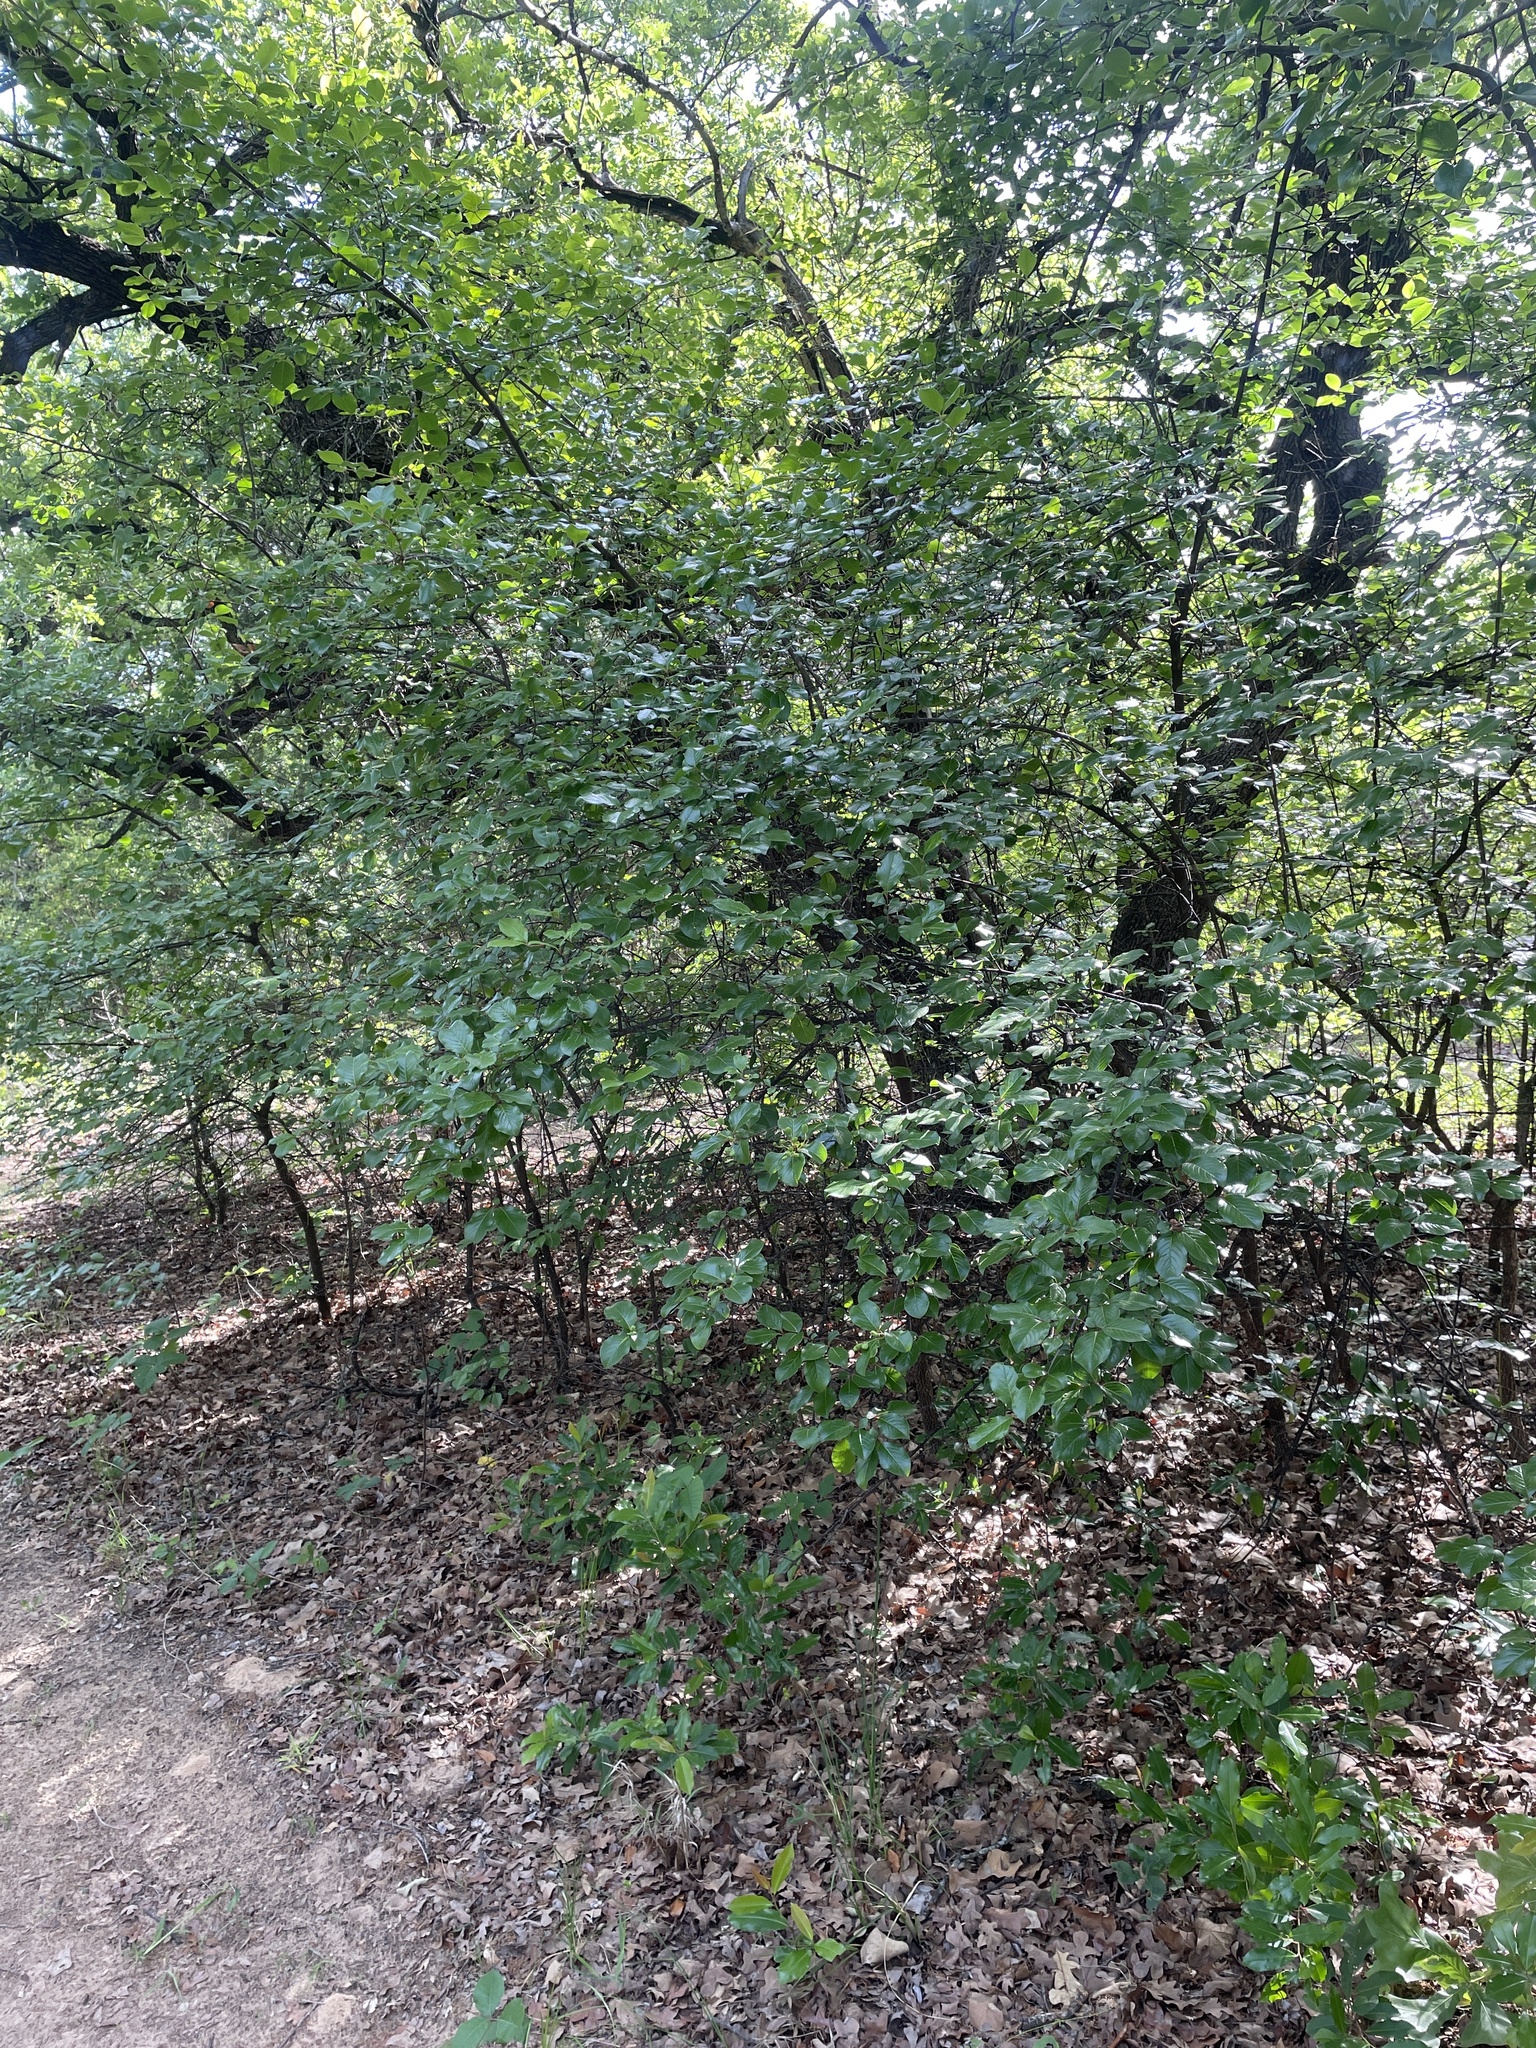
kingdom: Plantae
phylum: Tracheophyta
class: Magnoliopsida
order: Dipsacales
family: Viburnaceae
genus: Viburnum
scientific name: Viburnum rufidulum
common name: Blue haw
